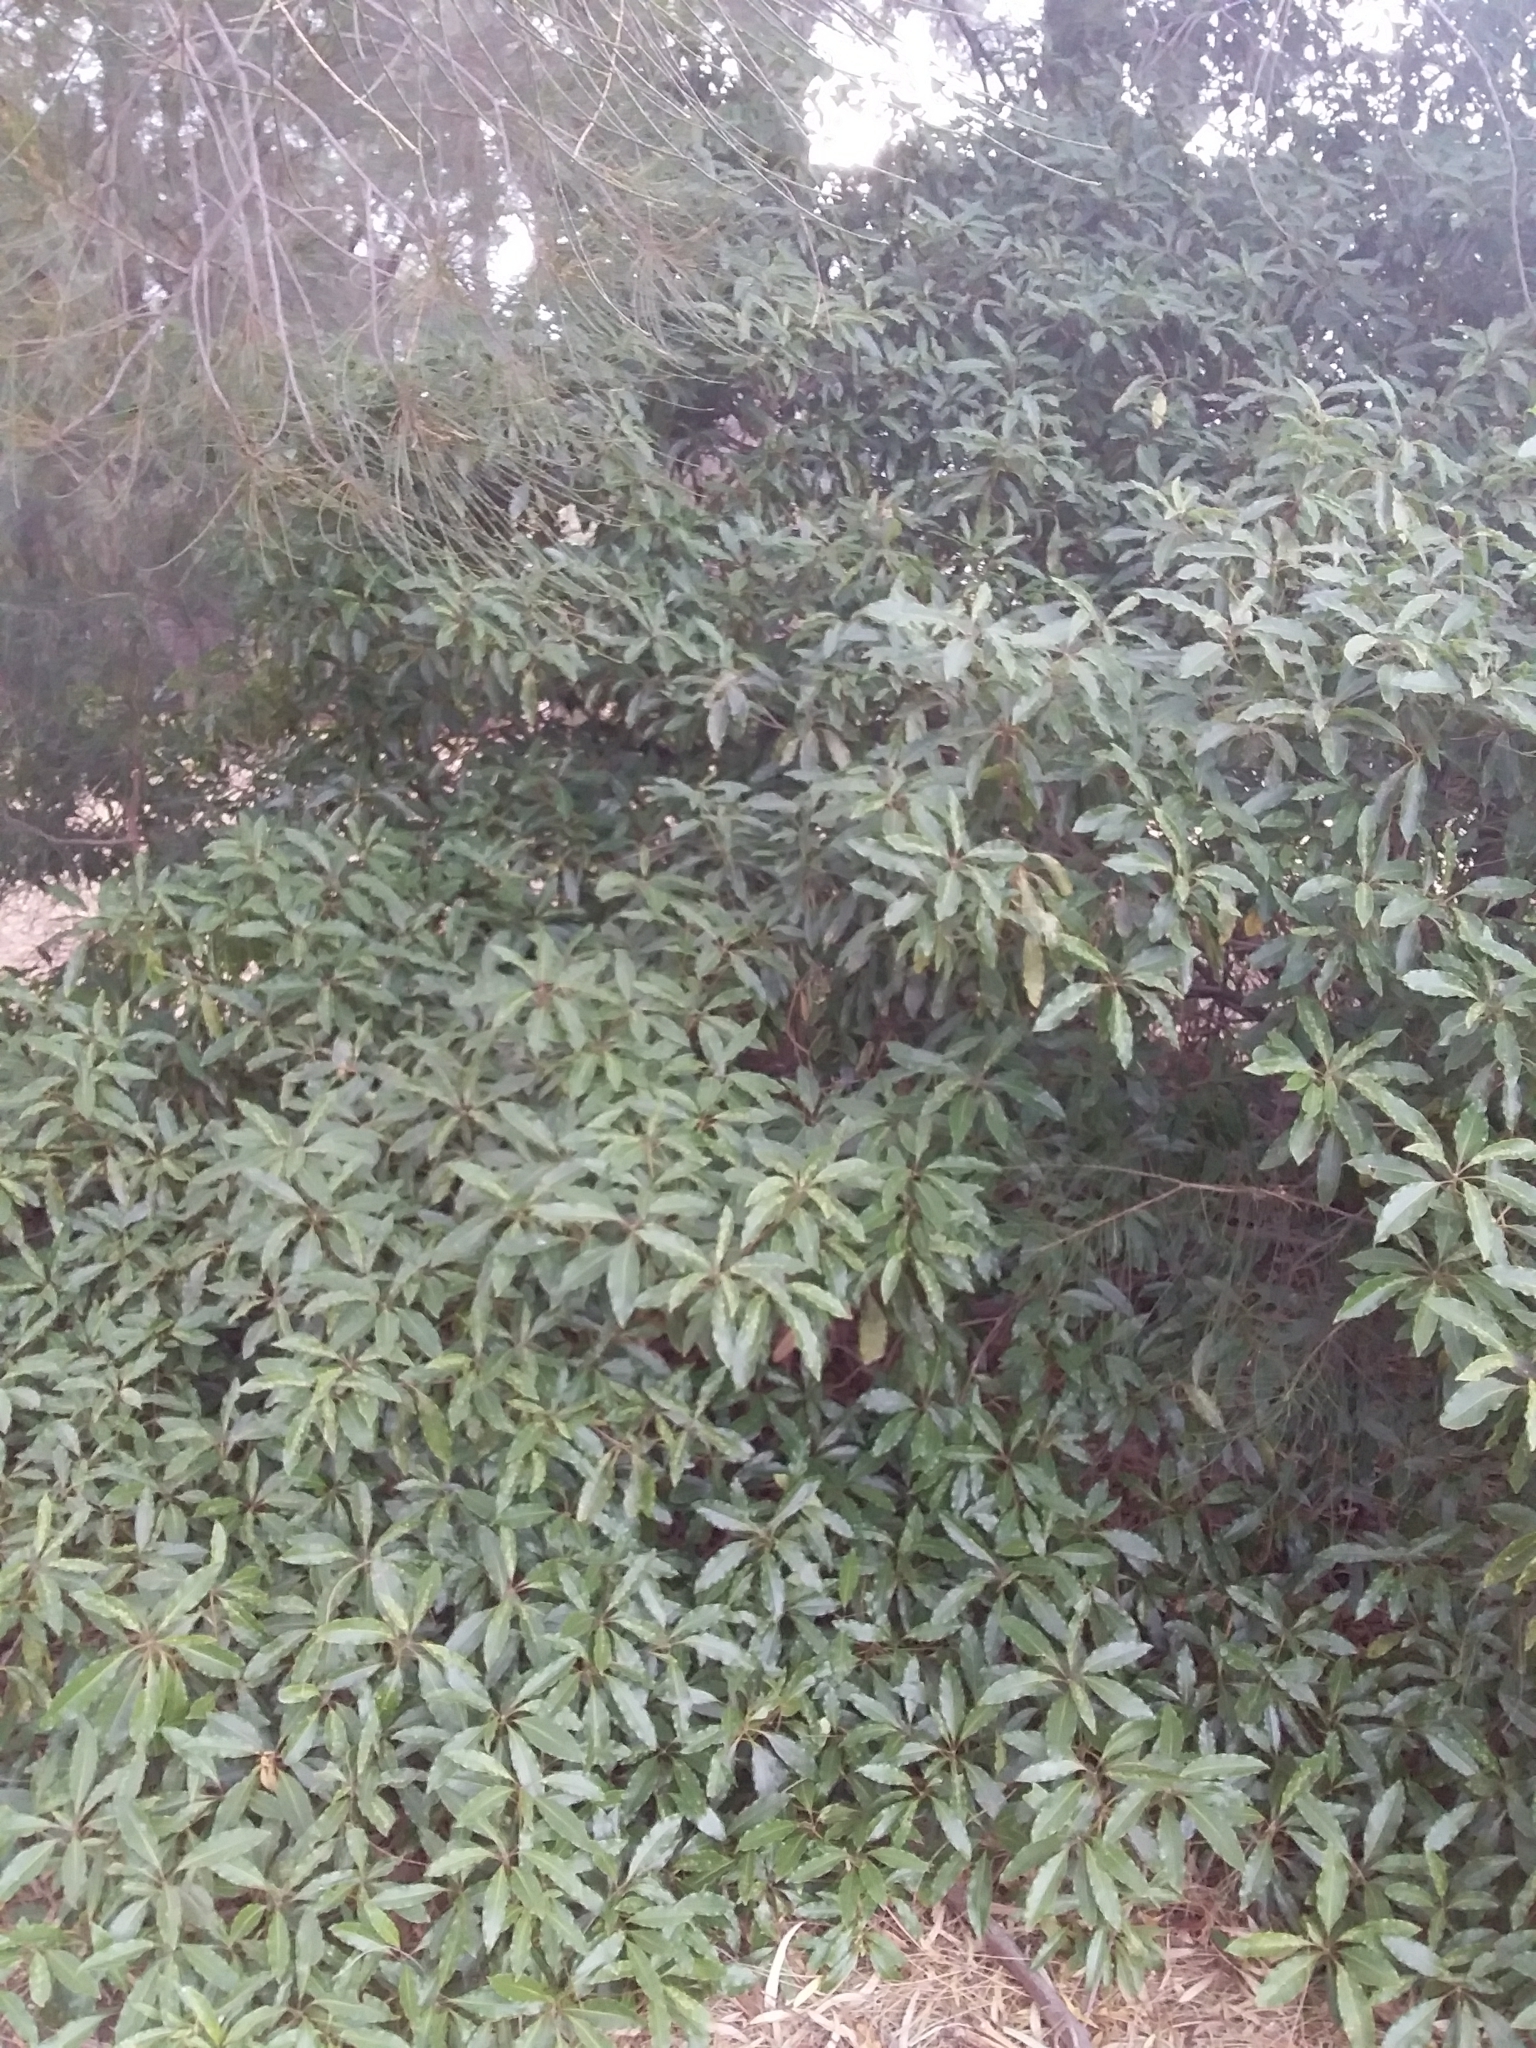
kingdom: Plantae
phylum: Tracheophyta
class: Magnoliopsida
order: Apiales
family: Pittosporaceae
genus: Pittosporum
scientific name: Pittosporum undulatum
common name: Australian cheesewood
